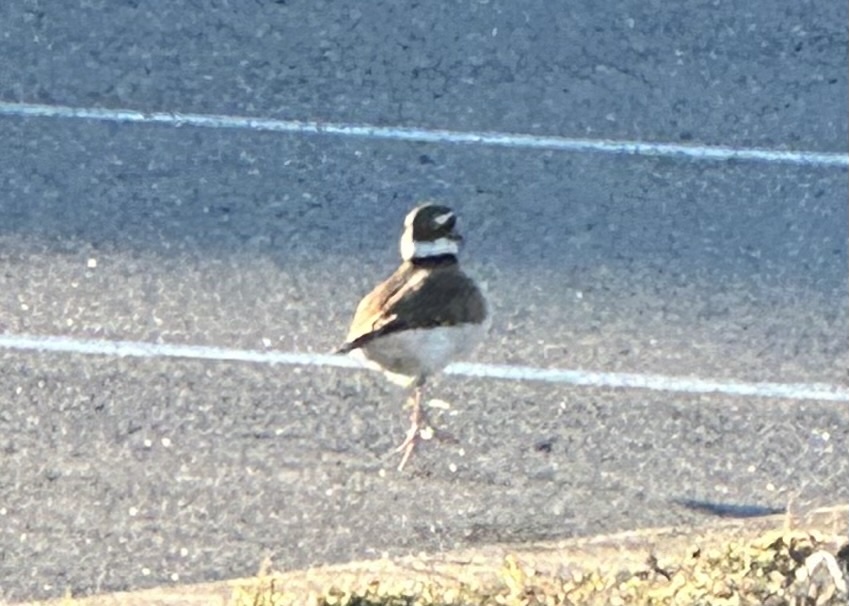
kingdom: Animalia
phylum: Chordata
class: Aves
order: Charadriiformes
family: Charadriidae
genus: Charadrius
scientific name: Charadrius vociferus
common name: Killdeer
